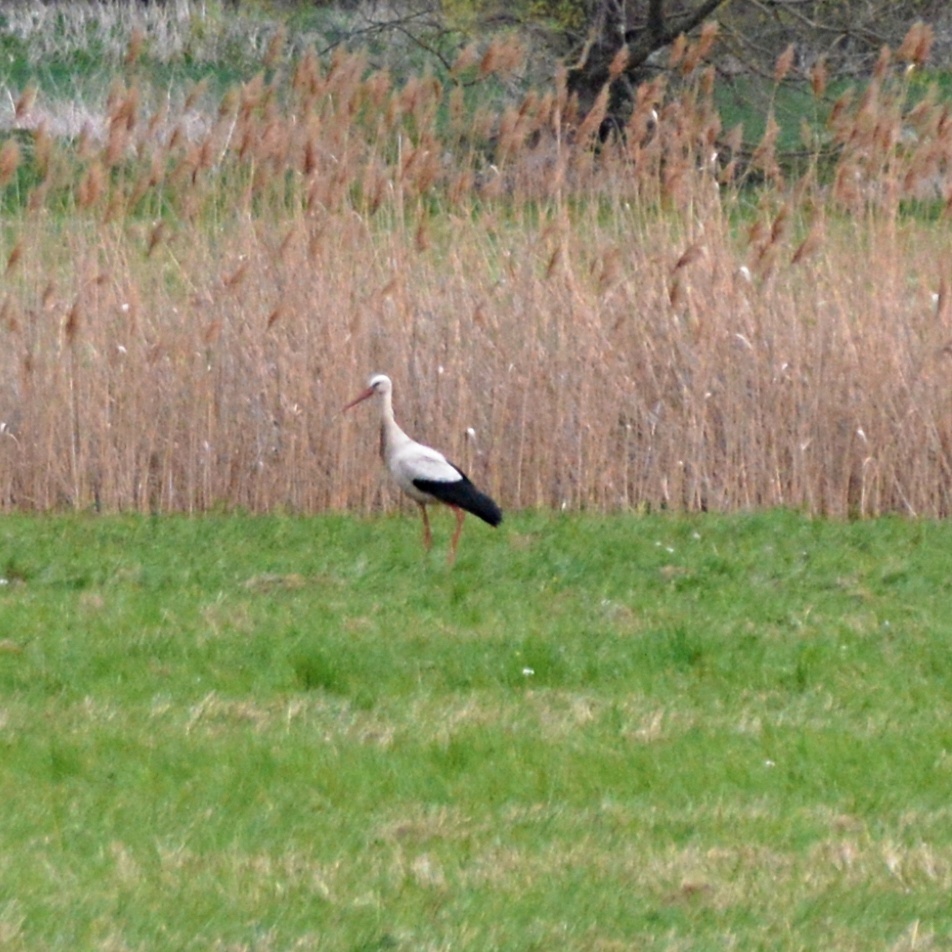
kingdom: Animalia
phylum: Chordata
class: Aves
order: Ciconiiformes
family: Ciconiidae
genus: Ciconia
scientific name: Ciconia ciconia
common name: White stork
